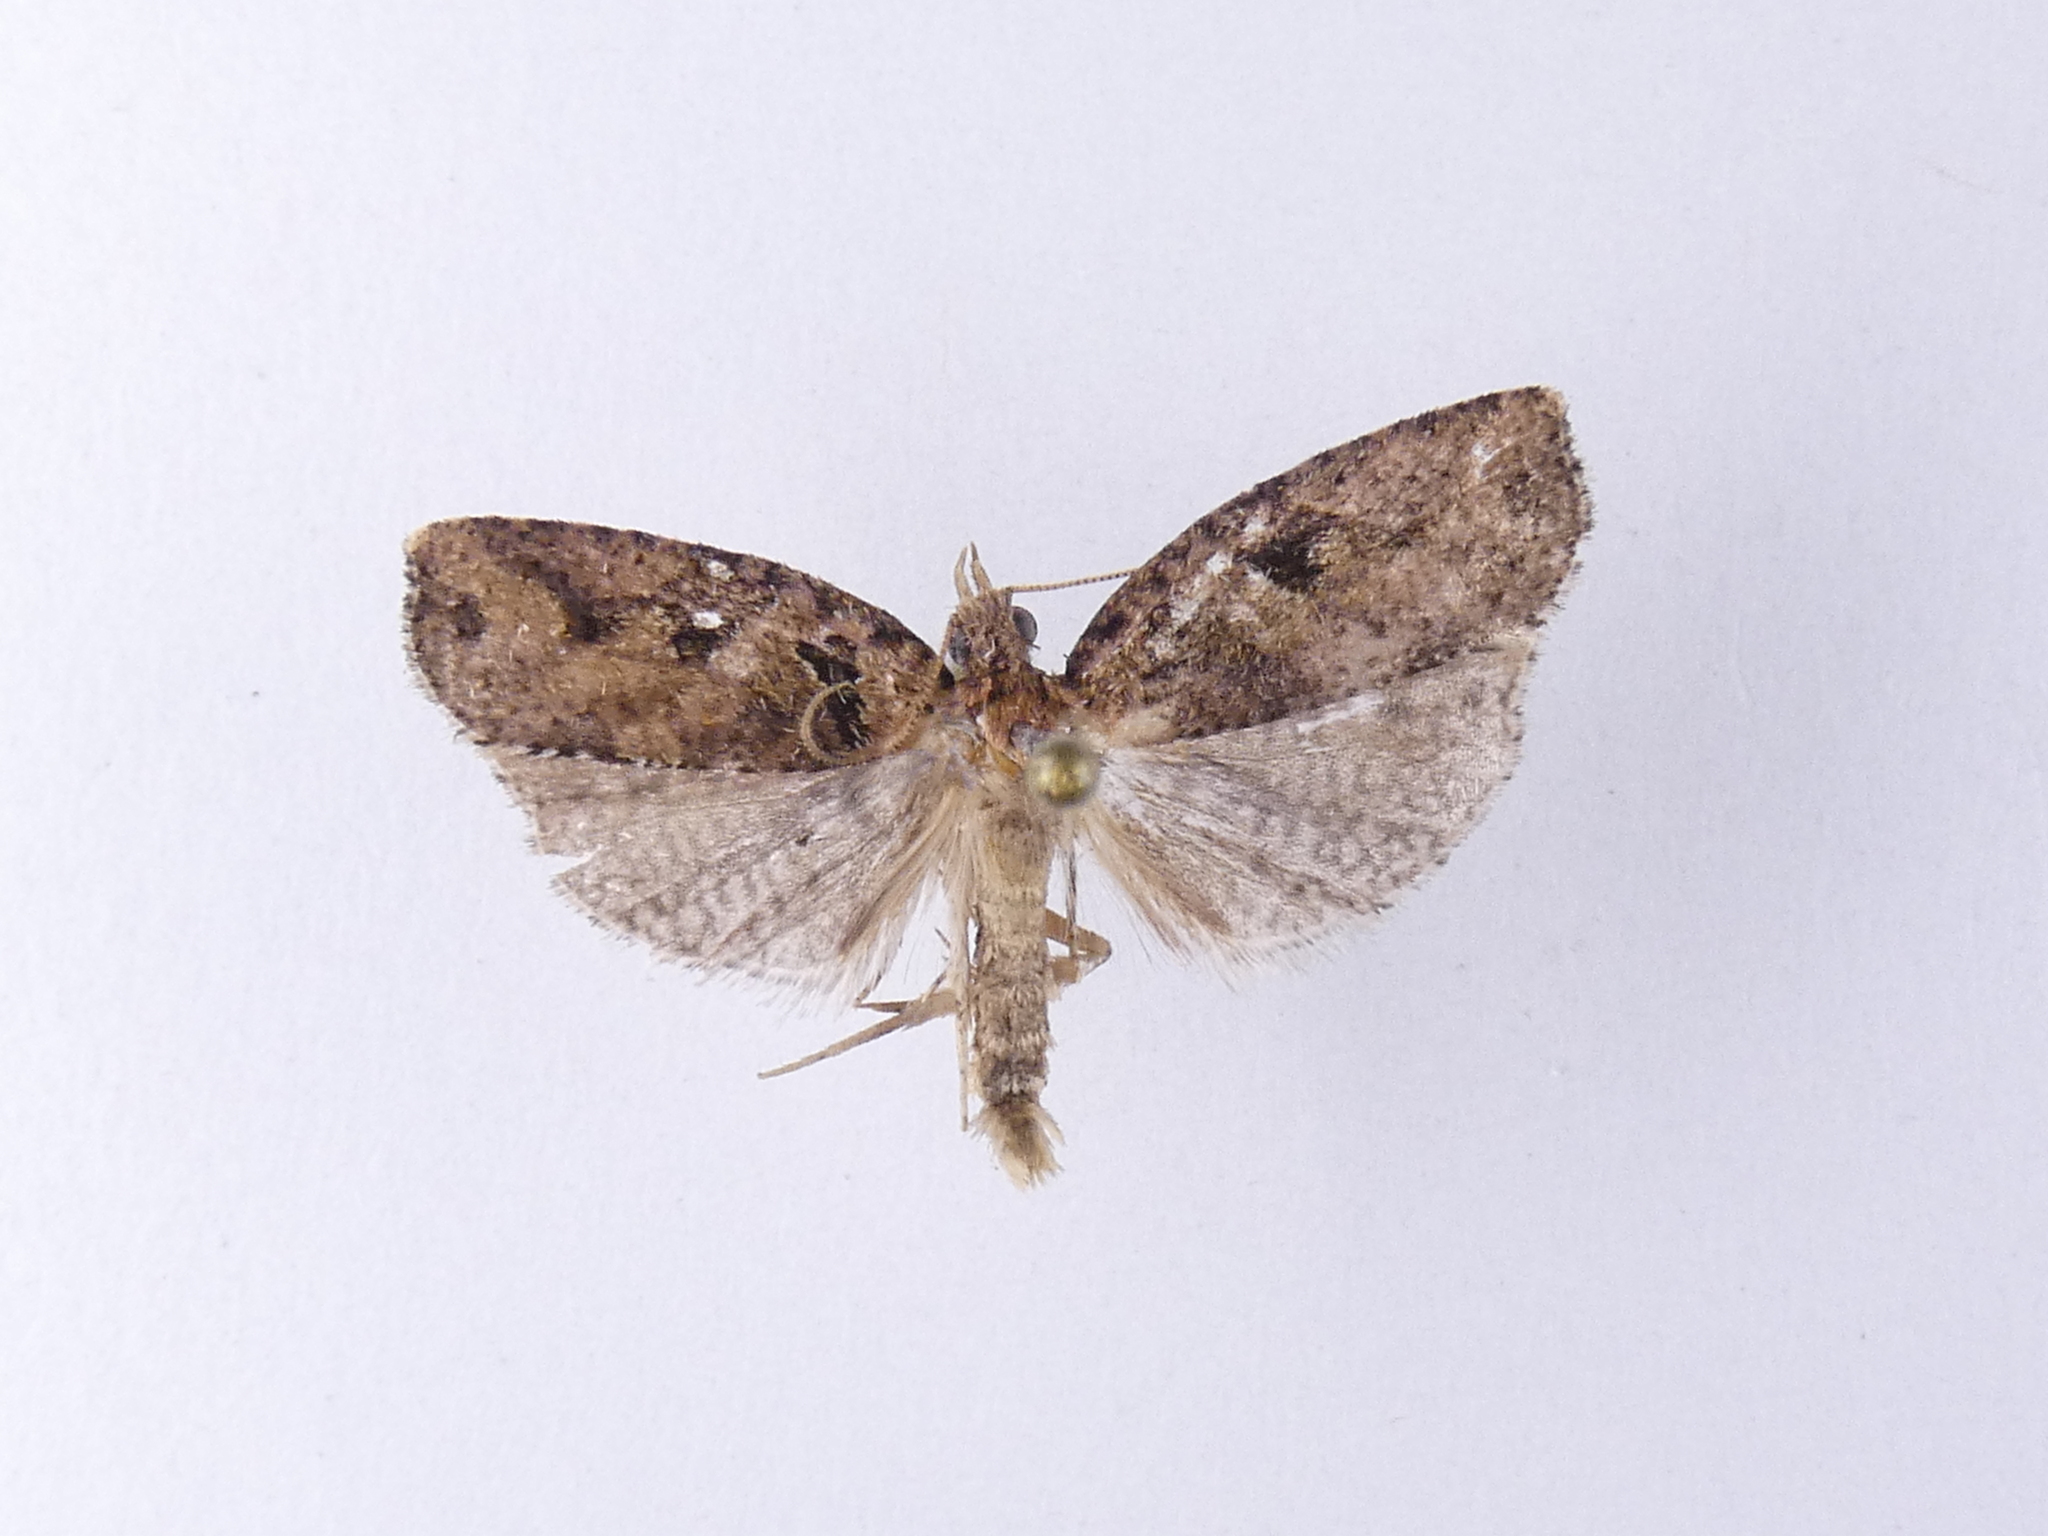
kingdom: Animalia
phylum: Arthropoda
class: Insecta
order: Lepidoptera
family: Tortricidae
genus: Ctenopseustis
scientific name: Ctenopseustis obliquana
